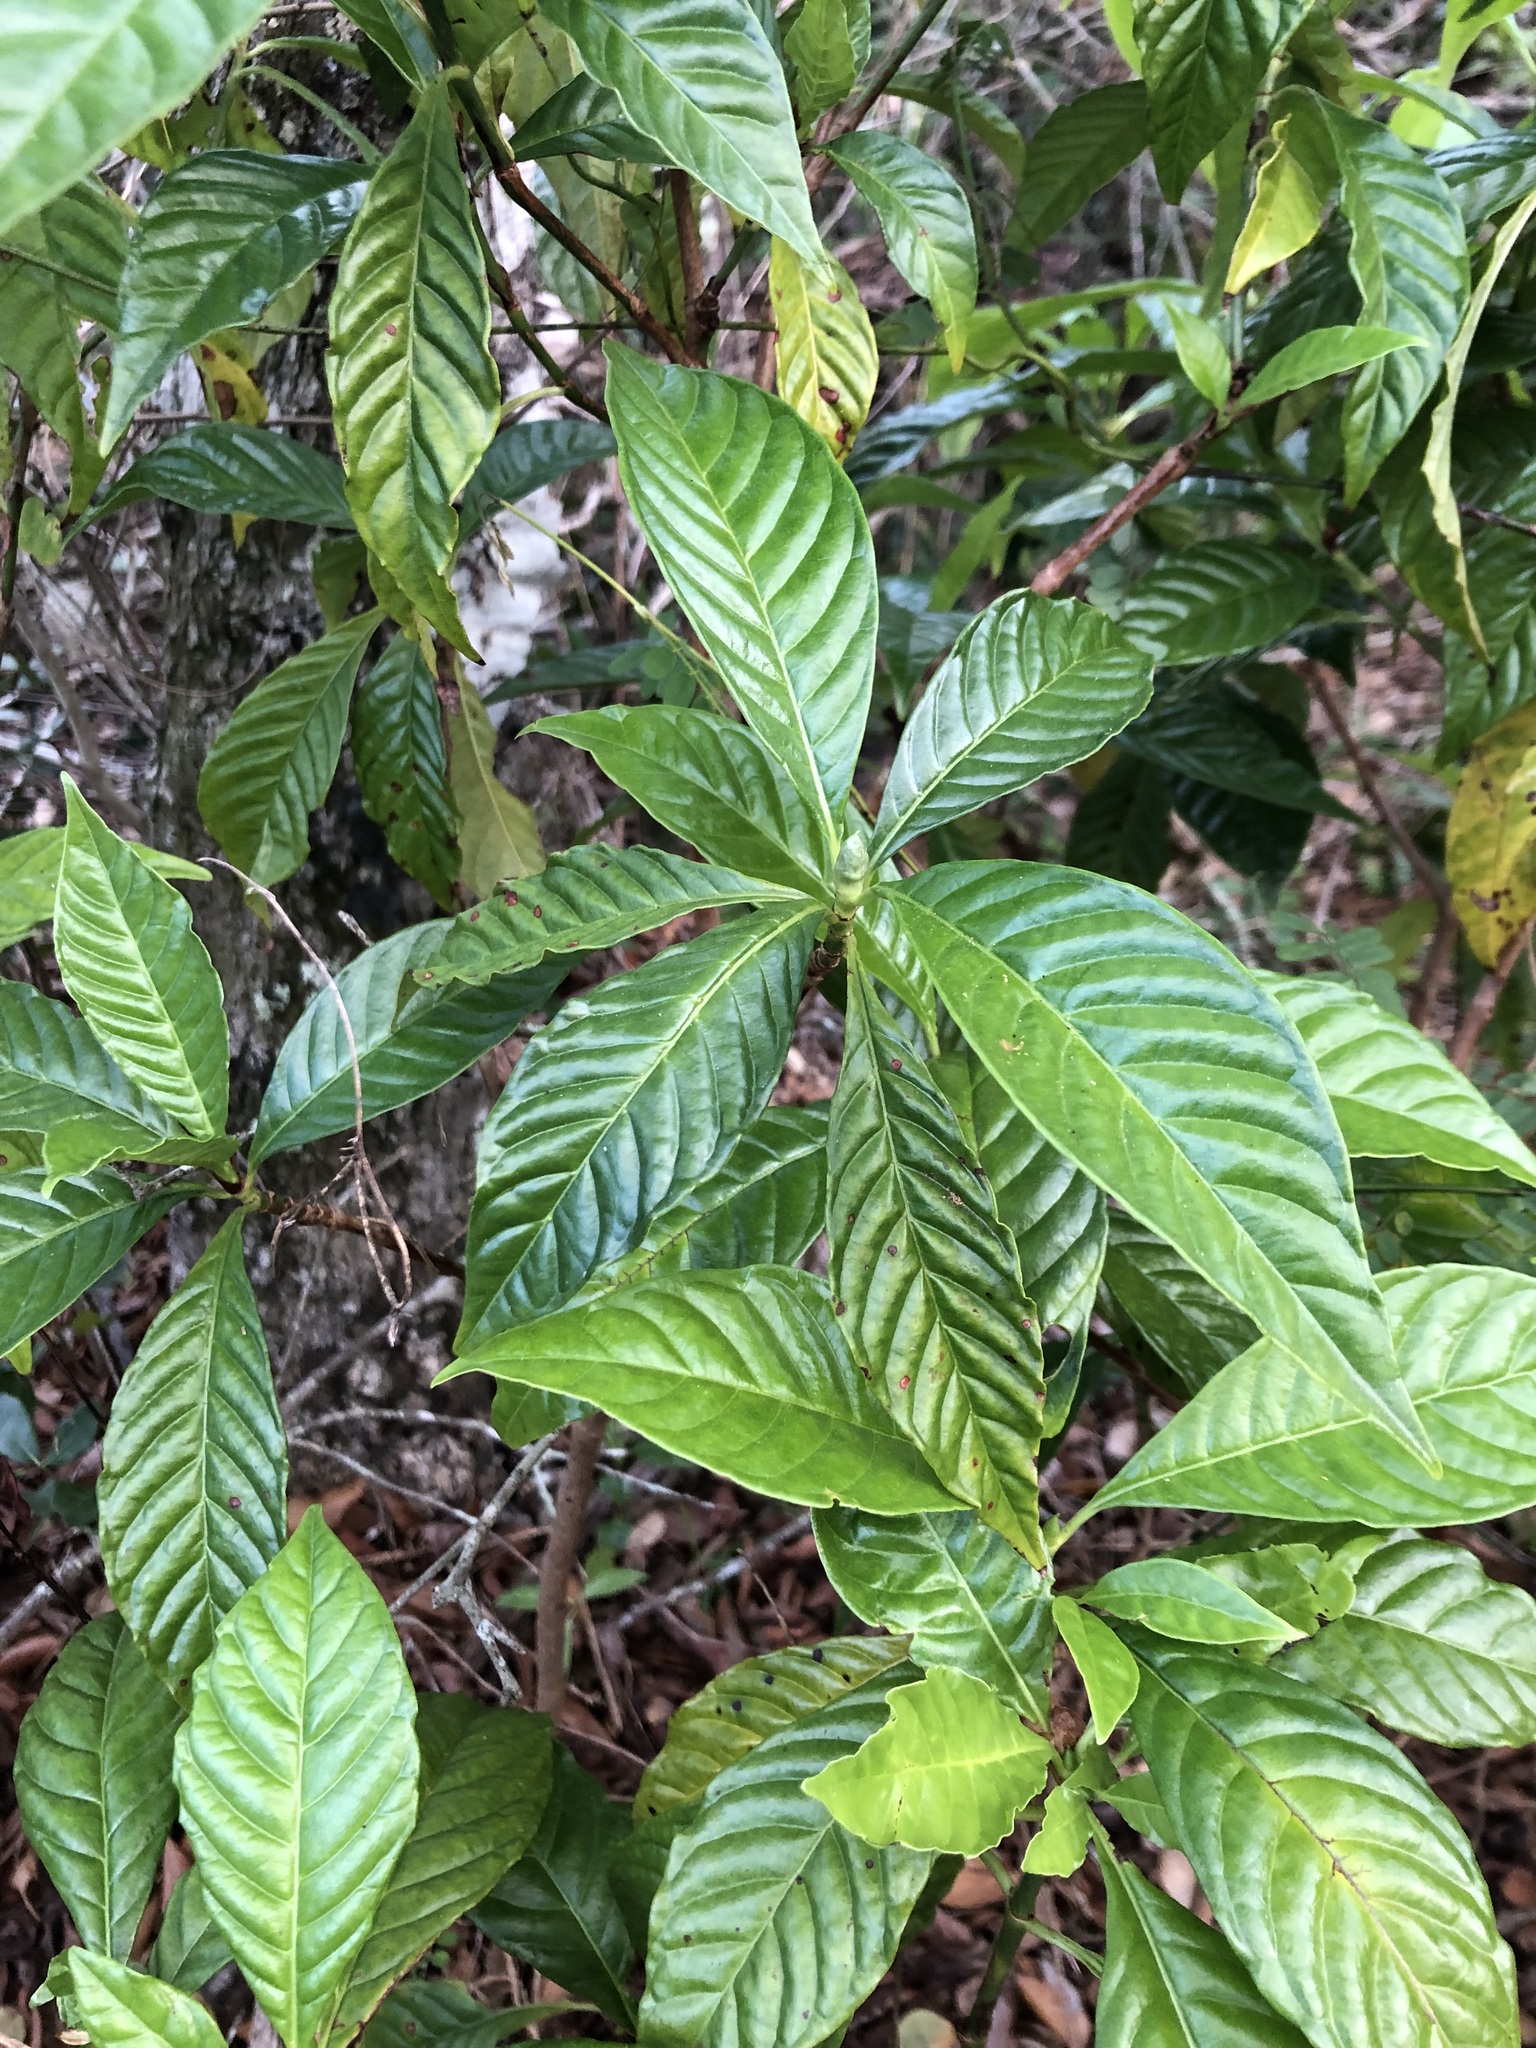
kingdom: Plantae
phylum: Tracheophyta
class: Magnoliopsida
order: Gentianales
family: Rubiaceae
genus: Psychotria
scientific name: Psychotria nervosa
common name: Bastard cankerberry
